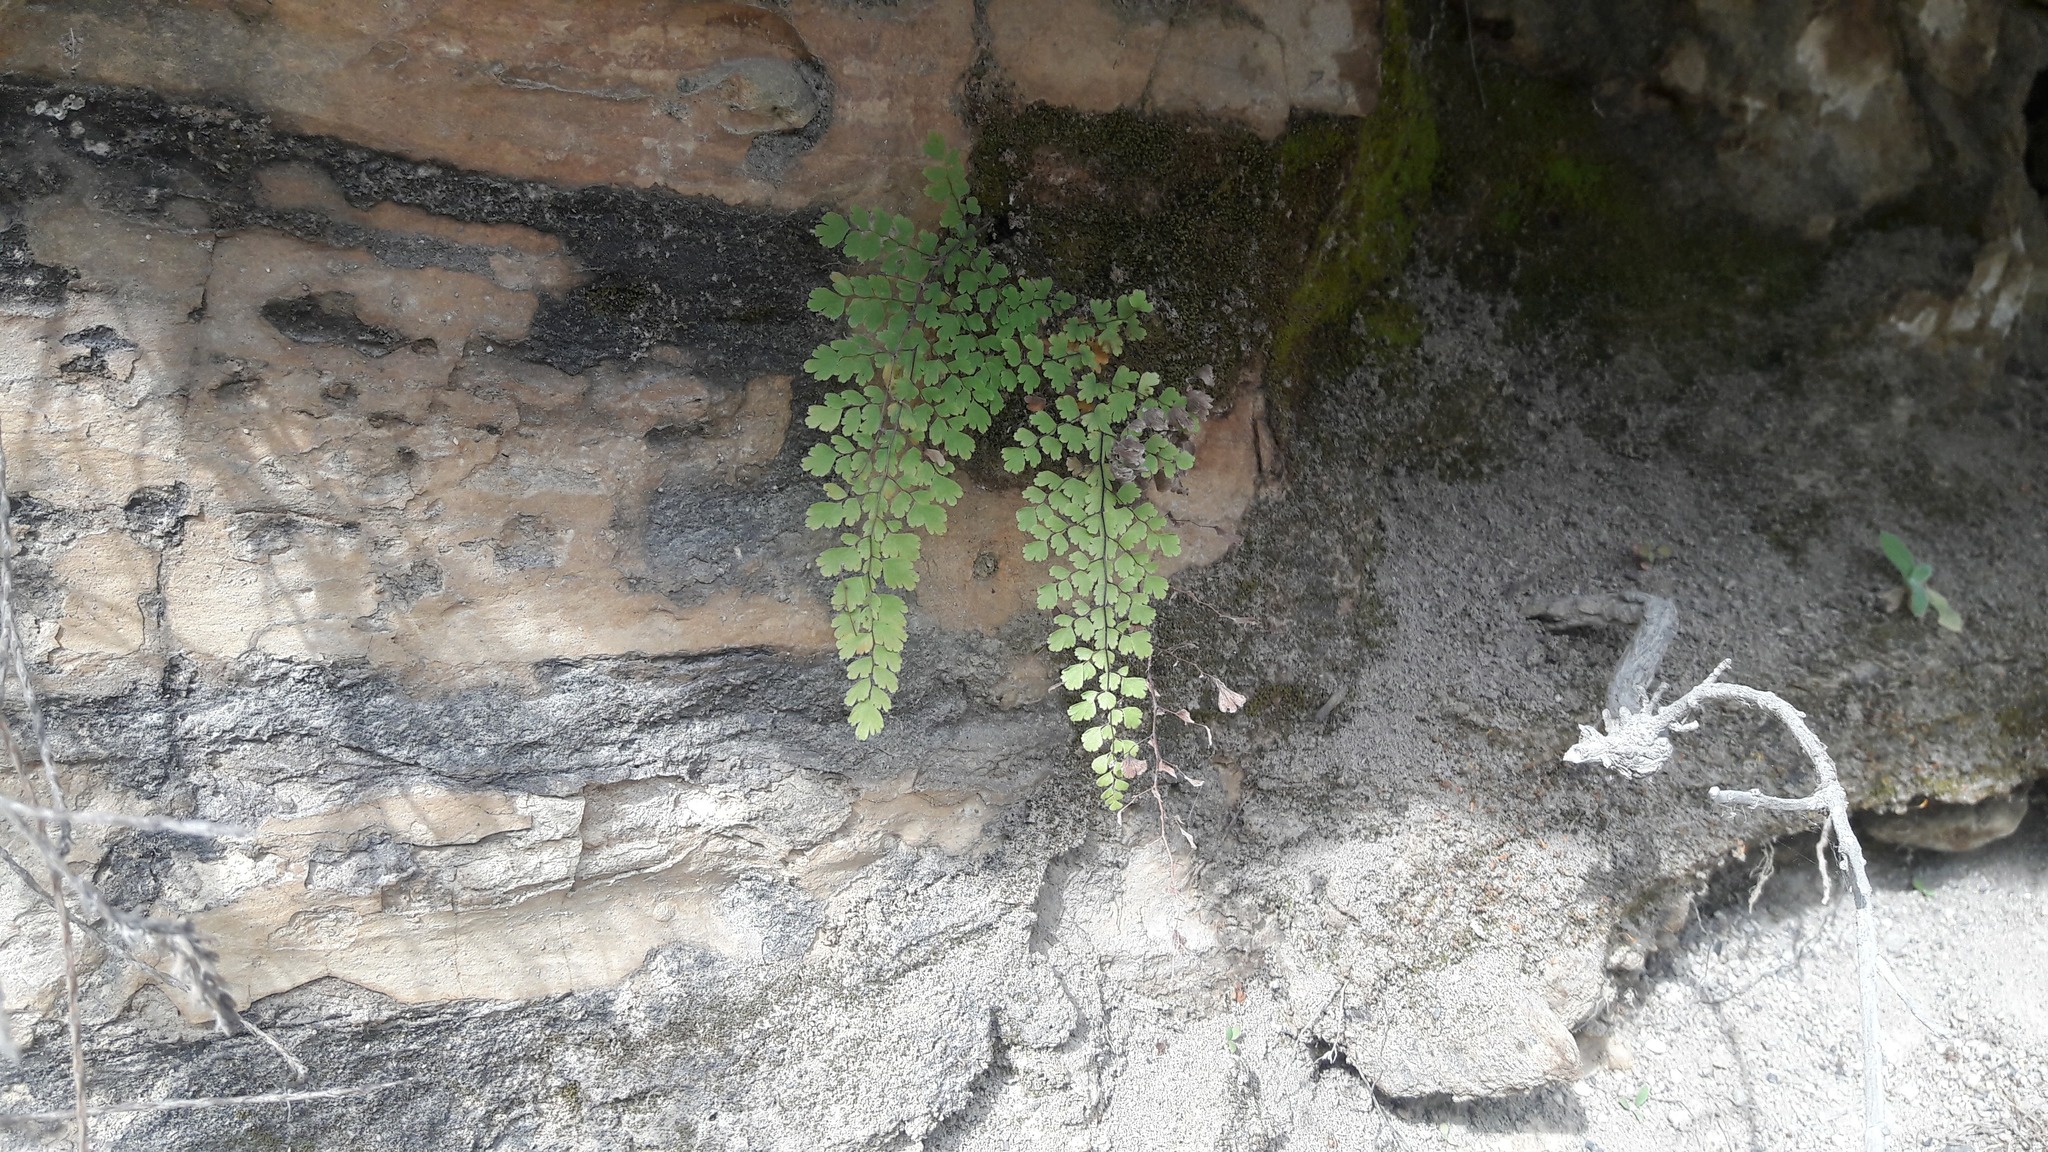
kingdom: Plantae
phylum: Tracheophyta
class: Polypodiopsida
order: Polypodiales
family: Pteridaceae
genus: Adiantum
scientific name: Adiantum concinnum
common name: Brittle maidenhair fern
